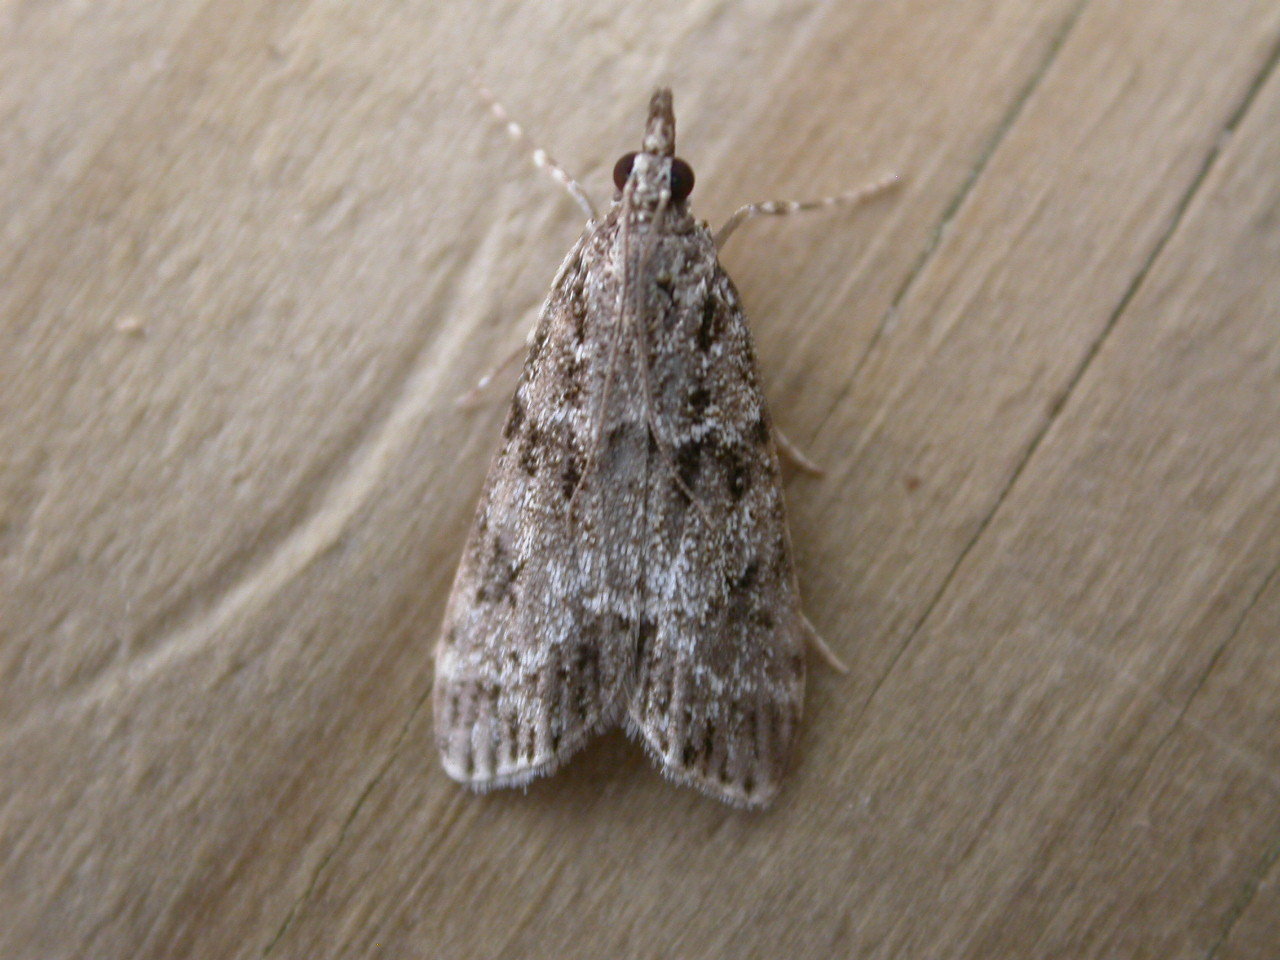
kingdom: Animalia
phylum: Arthropoda
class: Insecta
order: Lepidoptera
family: Crambidae
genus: Eudonia
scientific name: Eudonia mercurella
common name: Small grey
